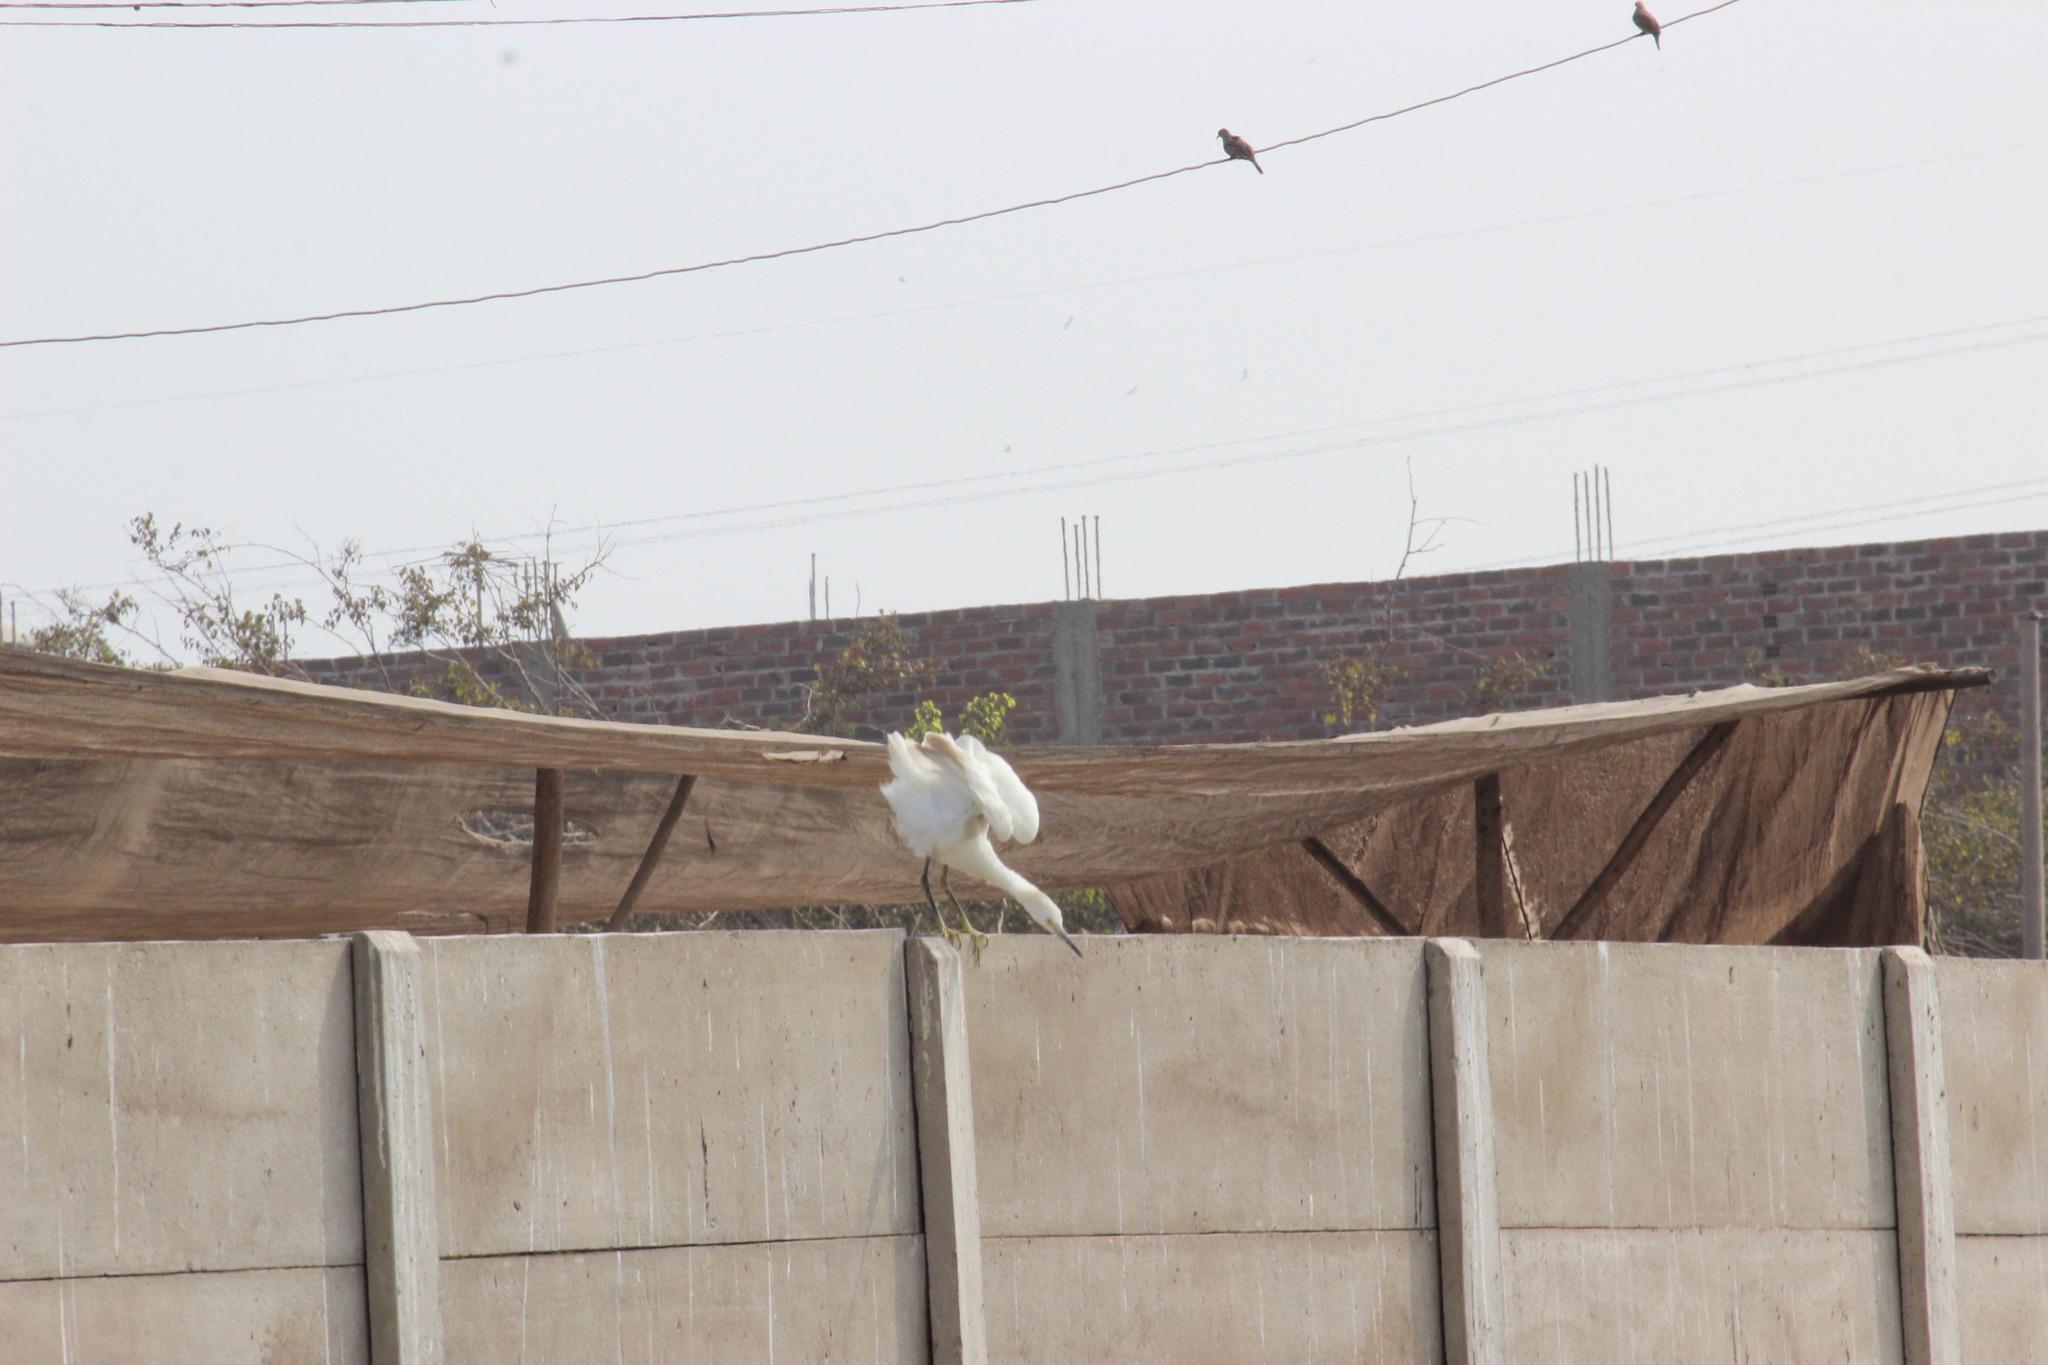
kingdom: Animalia
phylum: Chordata
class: Aves
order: Pelecaniformes
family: Ardeidae
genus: Egretta
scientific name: Egretta thula
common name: Snowy egret
